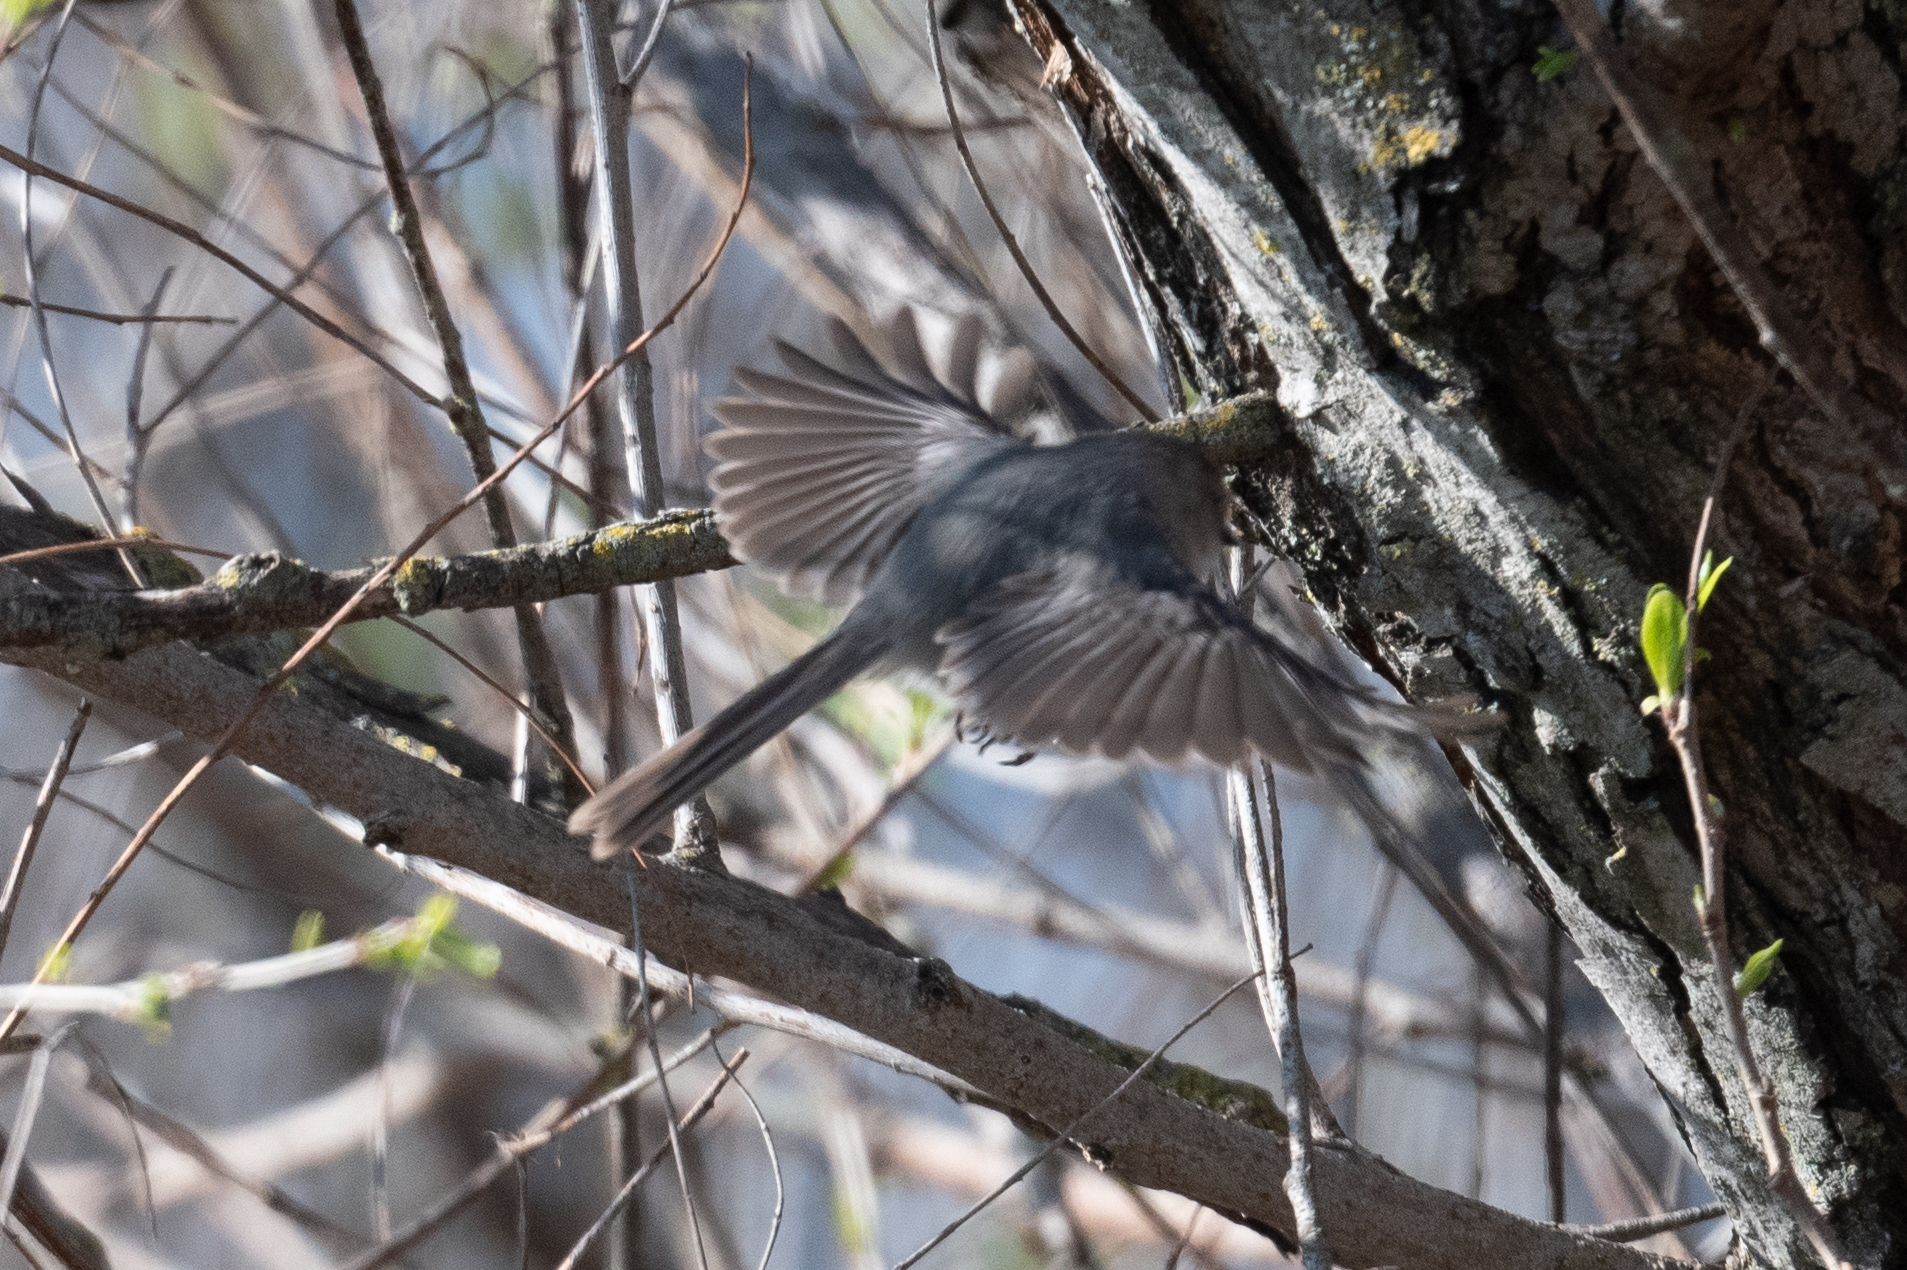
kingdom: Animalia
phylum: Chordata
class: Aves
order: Passeriformes
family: Aegithalidae
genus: Psaltriparus
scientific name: Psaltriparus minimus
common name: American bushtit
